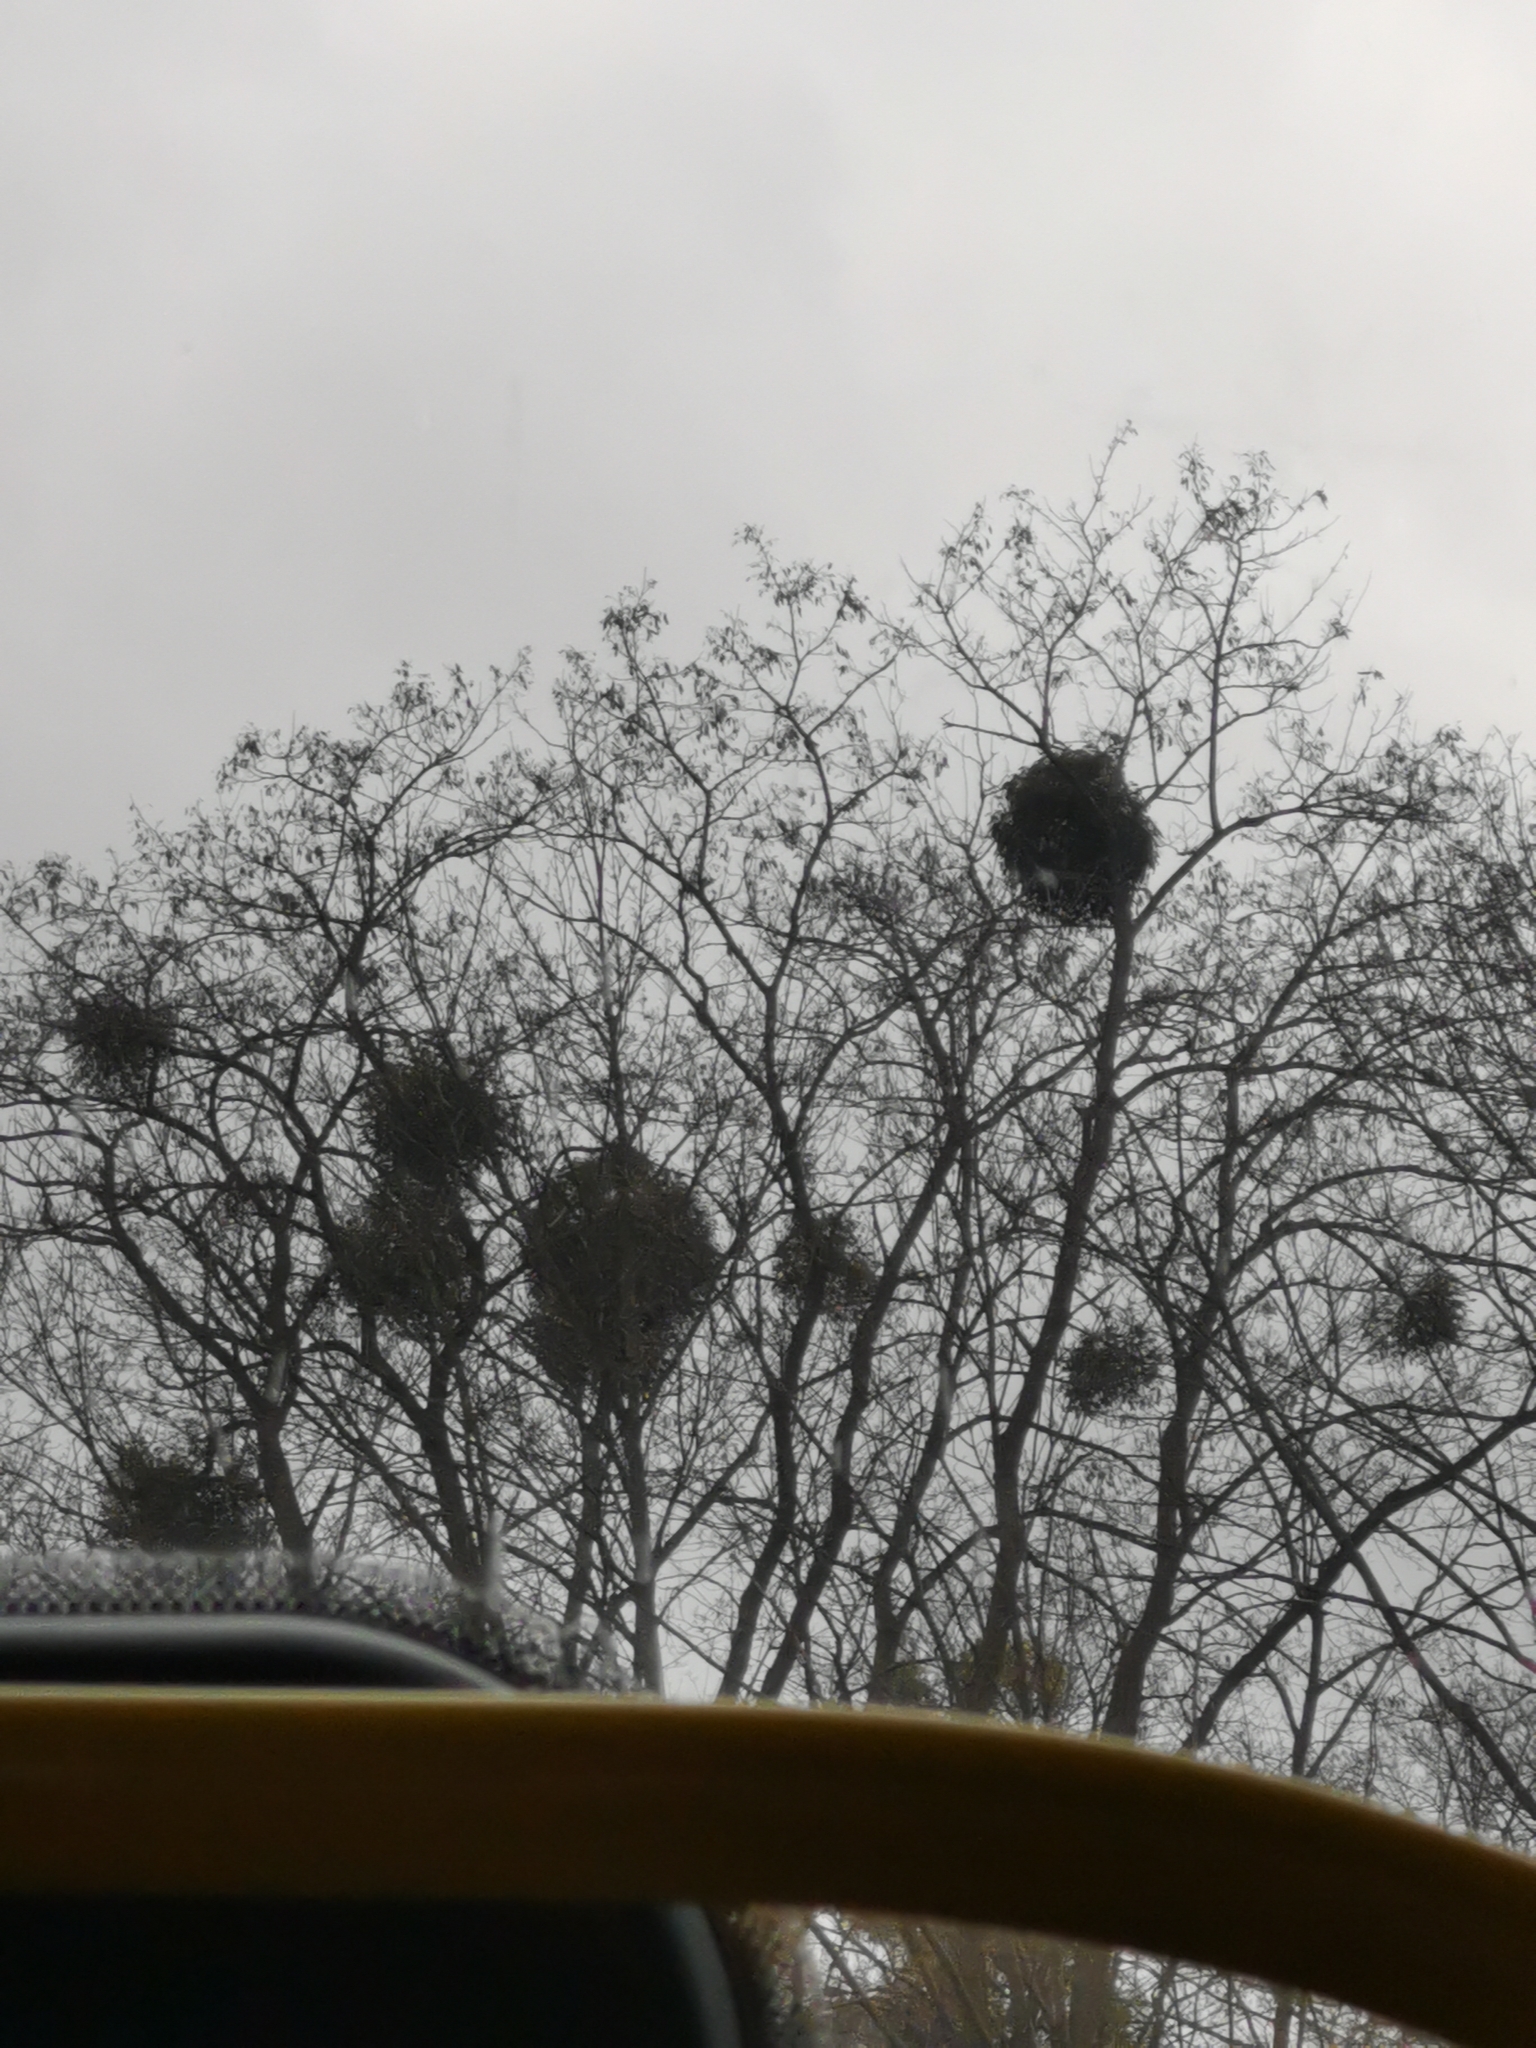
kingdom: Plantae
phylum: Tracheophyta
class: Magnoliopsida
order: Santalales
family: Viscaceae
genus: Viscum
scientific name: Viscum album
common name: Mistletoe
